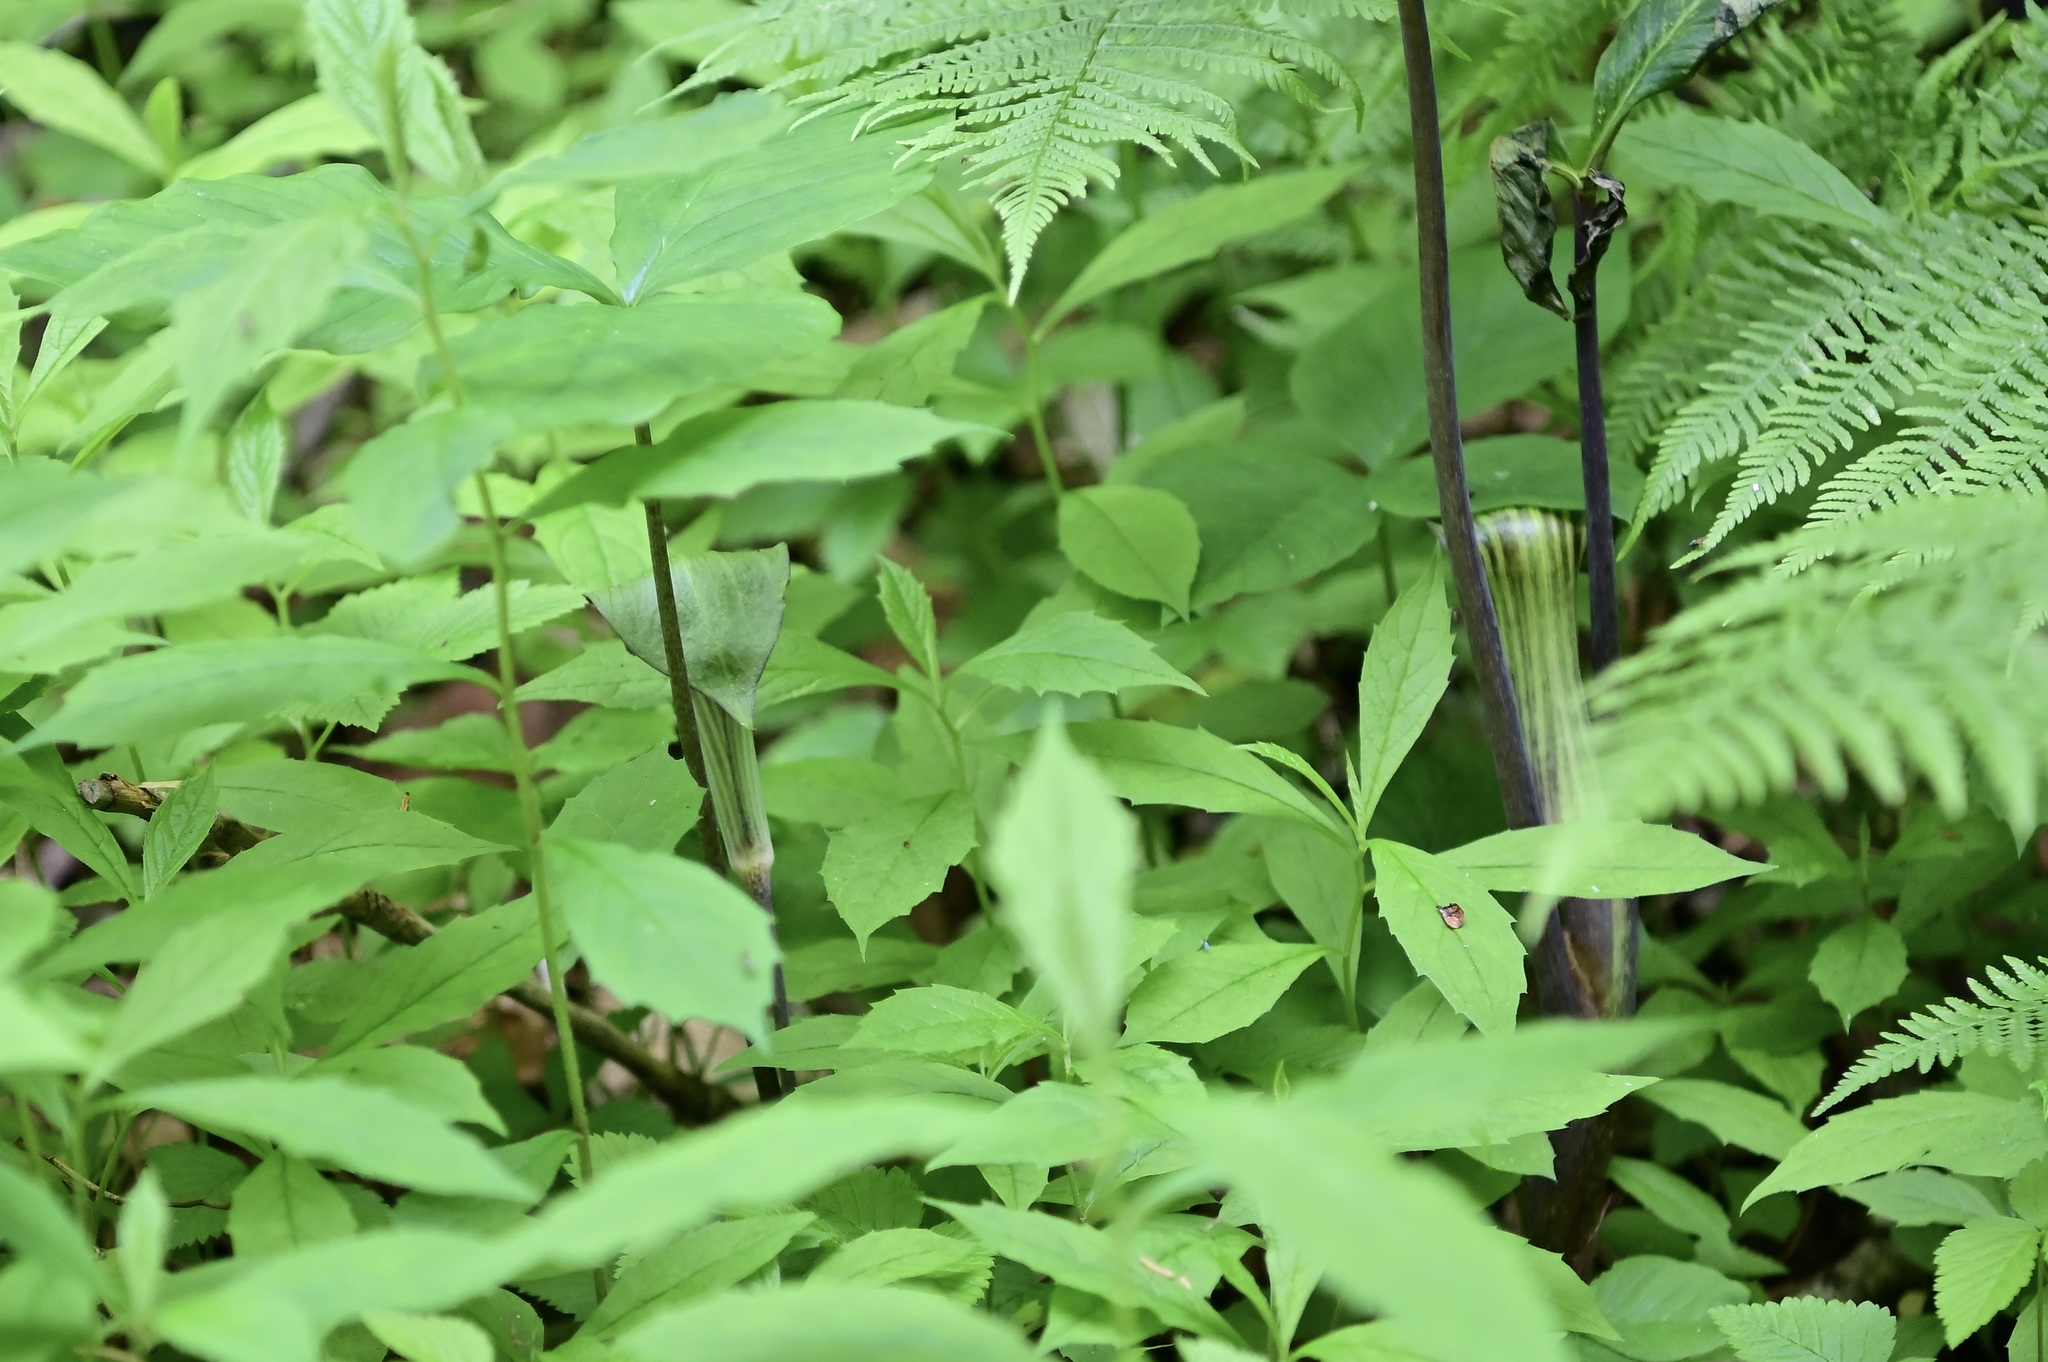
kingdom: Plantae
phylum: Tracheophyta
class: Liliopsida
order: Alismatales
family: Araceae
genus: Arisaema
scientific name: Arisaema triphyllum
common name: Jack-in-the-pulpit
